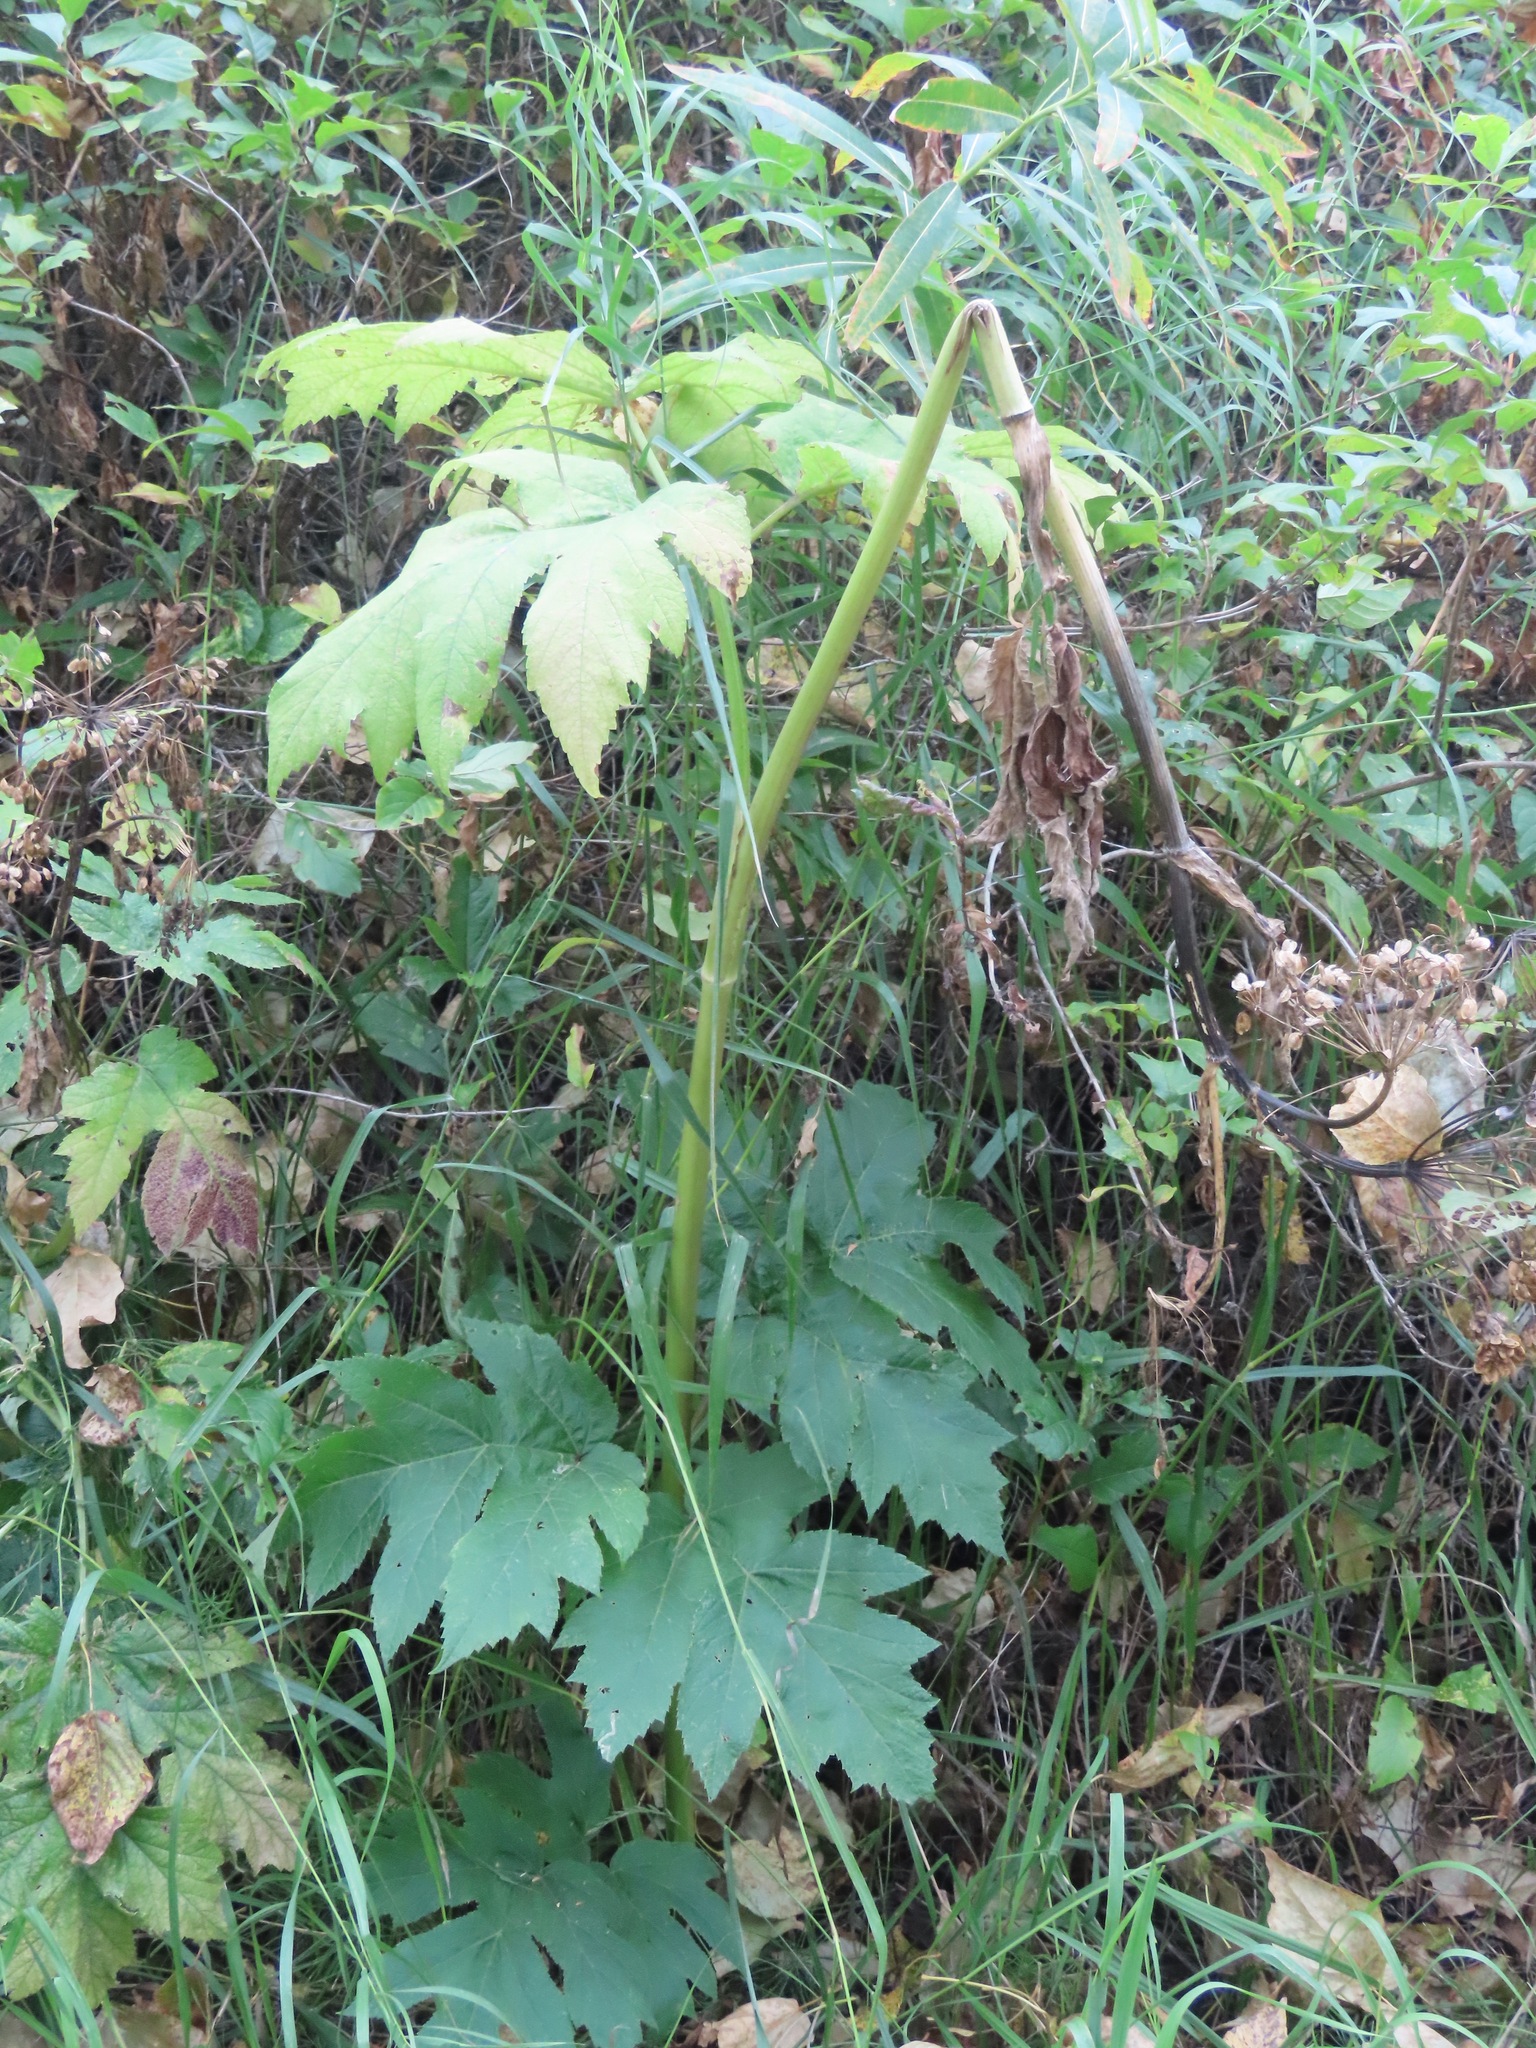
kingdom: Plantae
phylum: Tracheophyta
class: Magnoliopsida
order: Apiales
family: Apiaceae
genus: Heracleum
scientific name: Heracleum maximum
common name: American cow parsnip
